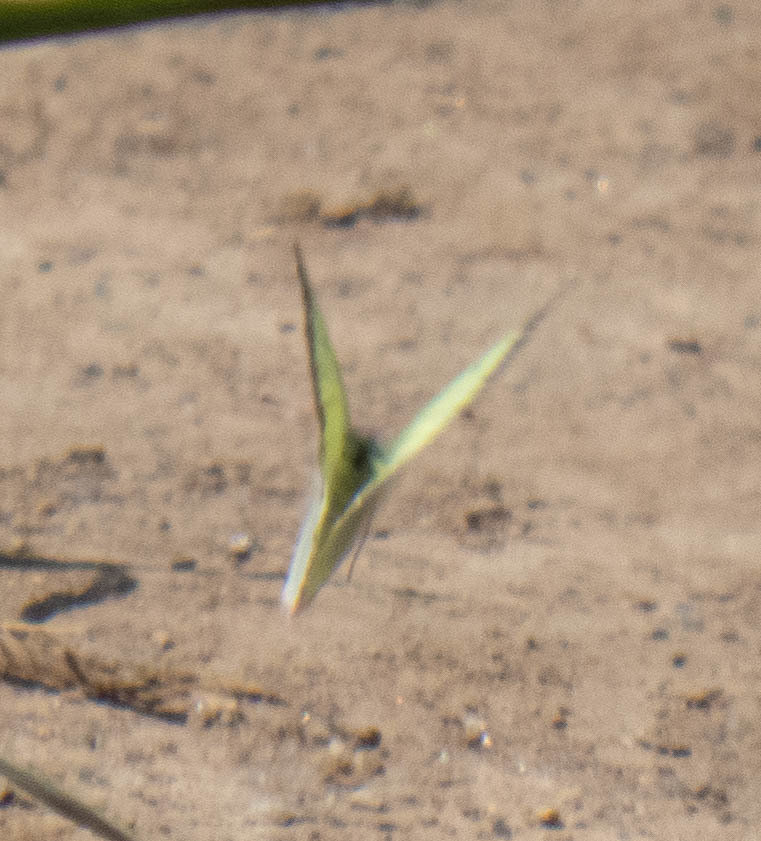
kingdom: Animalia
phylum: Arthropoda
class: Insecta
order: Lepidoptera
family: Pieridae
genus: Colias
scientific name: Colias philodice
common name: Clouded sulphur
